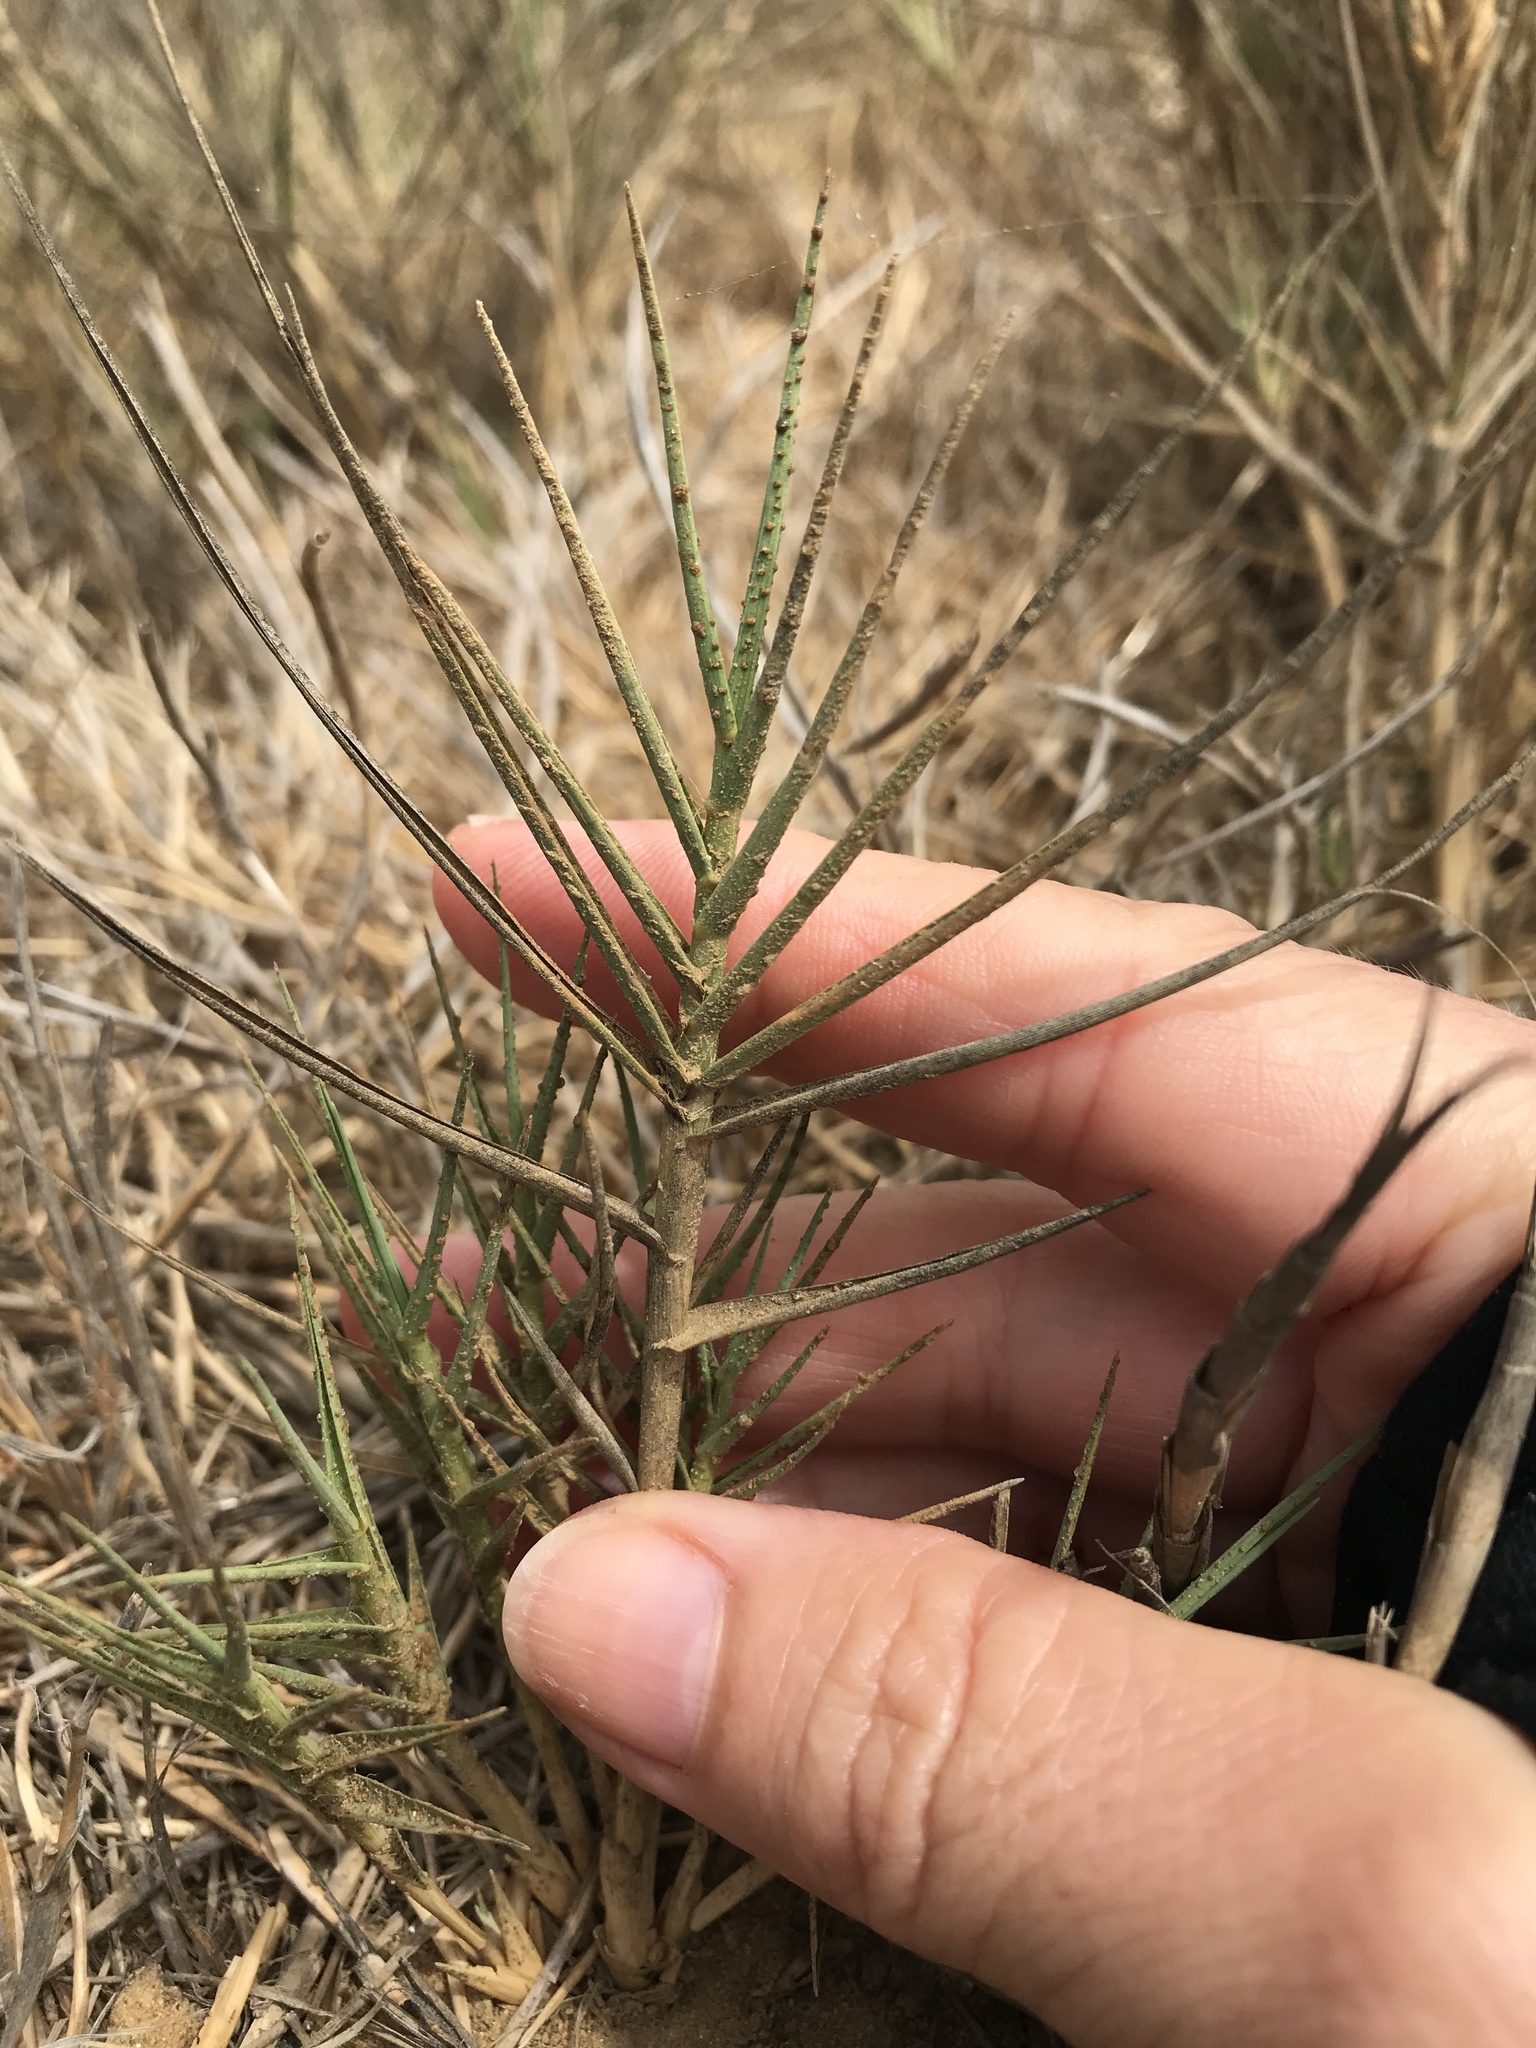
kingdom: Plantae
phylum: Tracheophyta
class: Liliopsida
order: Poales
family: Poaceae
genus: Distichlis
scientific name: Distichlis spicata
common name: Saltgrass
